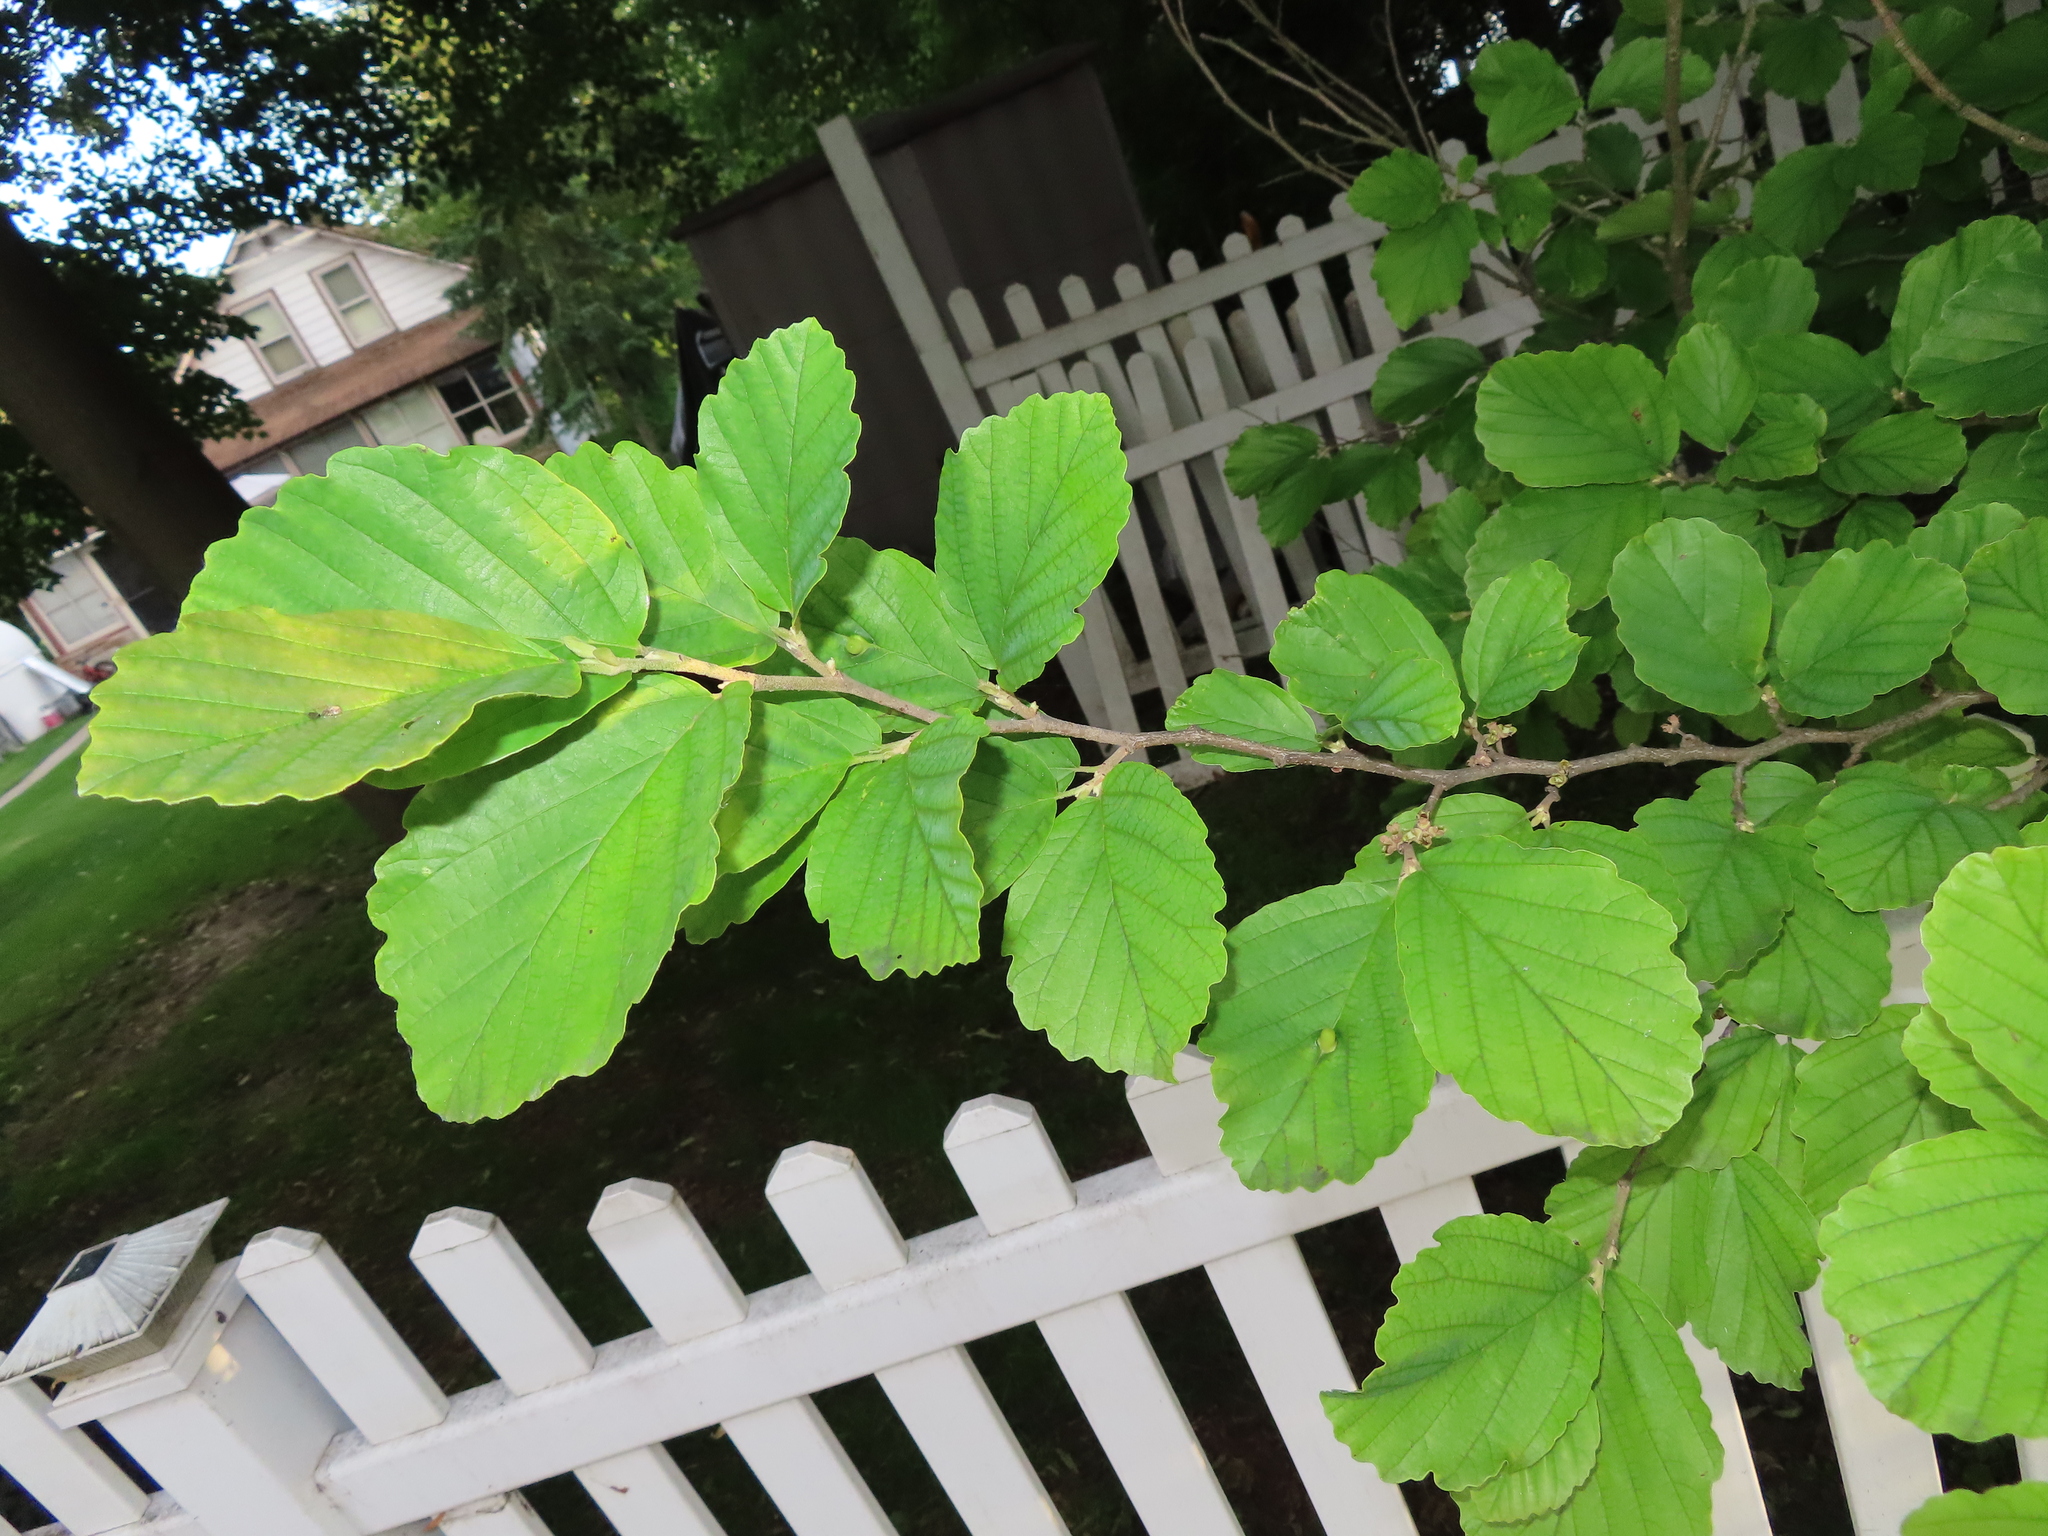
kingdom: Plantae
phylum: Tracheophyta
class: Magnoliopsida
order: Saxifragales
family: Hamamelidaceae
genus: Hamamelis
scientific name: Hamamelis virginiana
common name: Witch-hazel
